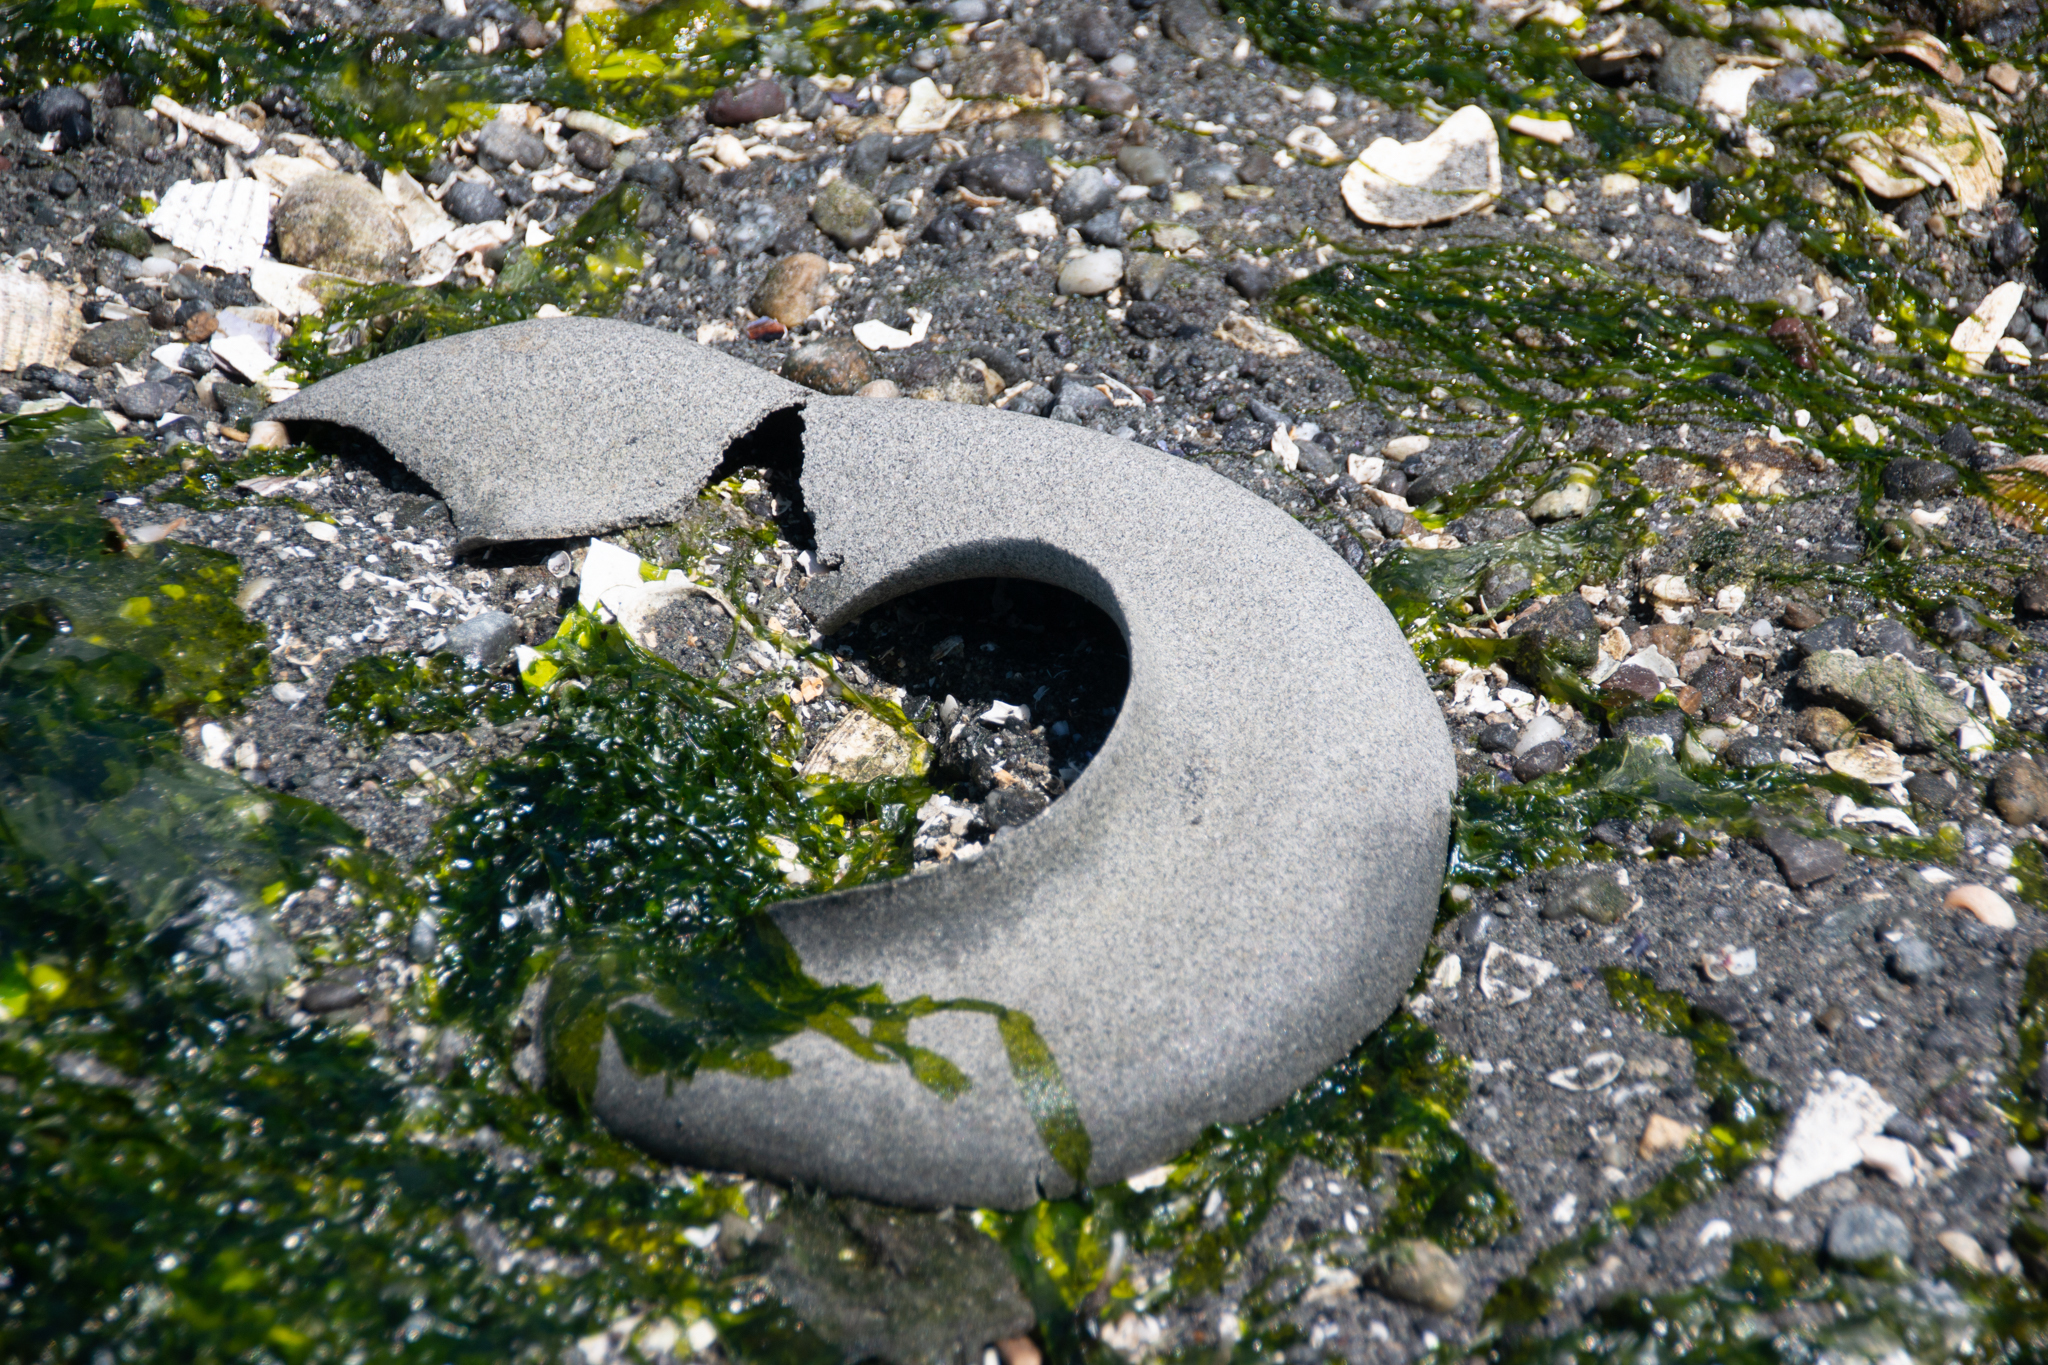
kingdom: Animalia
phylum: Mollusca
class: Gastropoda
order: Littorinimorpha
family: Naticidae
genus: Neverita
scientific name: Neverita lewisii
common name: Lewis' moonsnail
